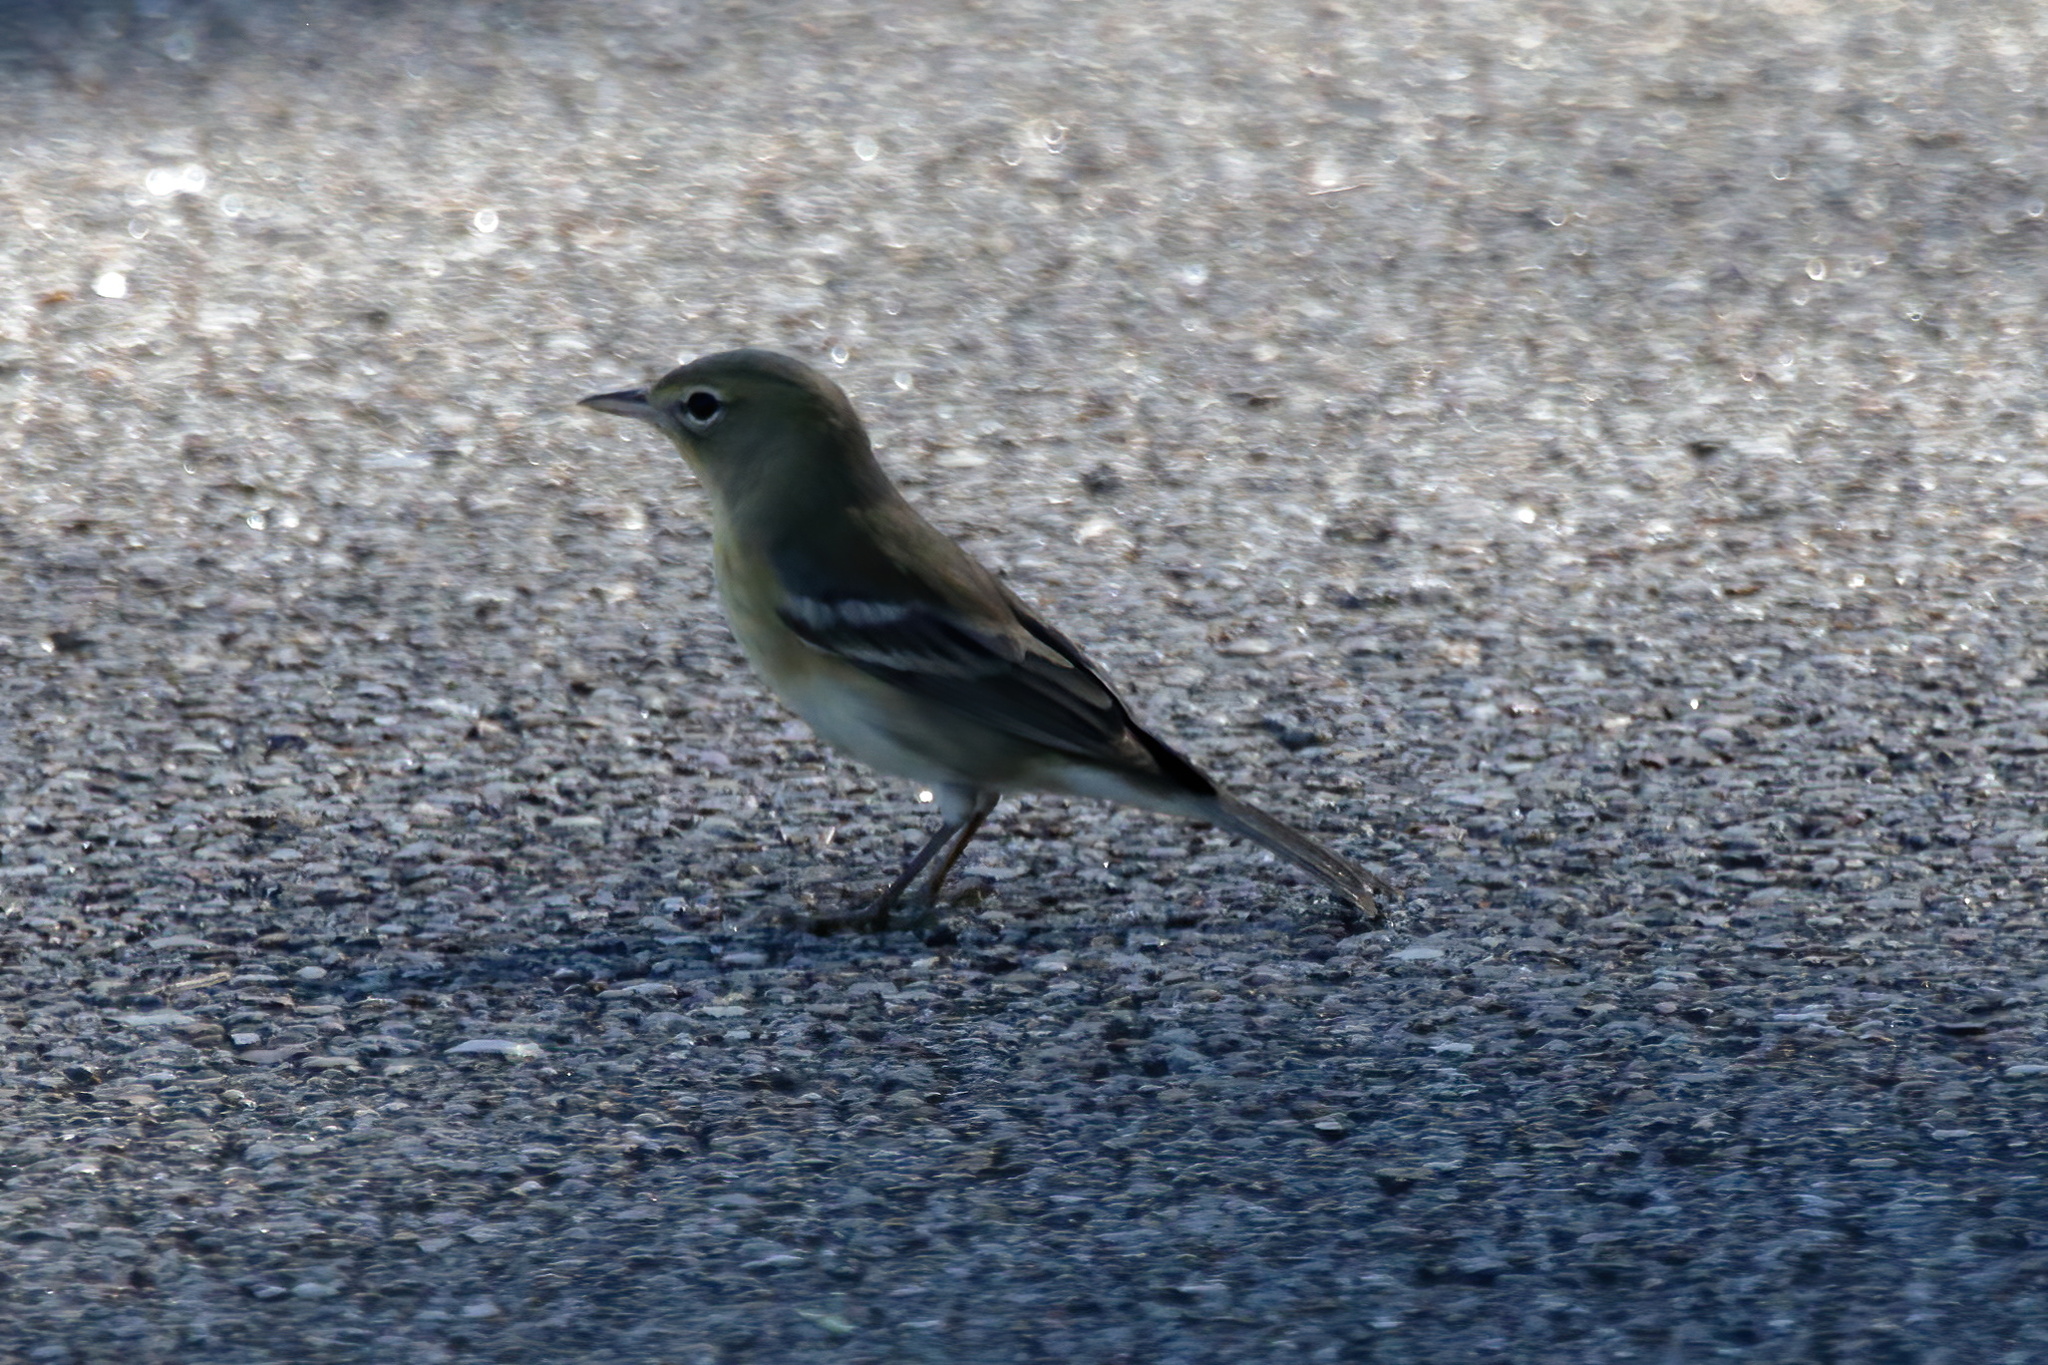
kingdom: Animalia
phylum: Chordata
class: Aves
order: Passeriformes
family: Parulidae
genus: Setophaga
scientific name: Setophaga pinus
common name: Pine warbler
